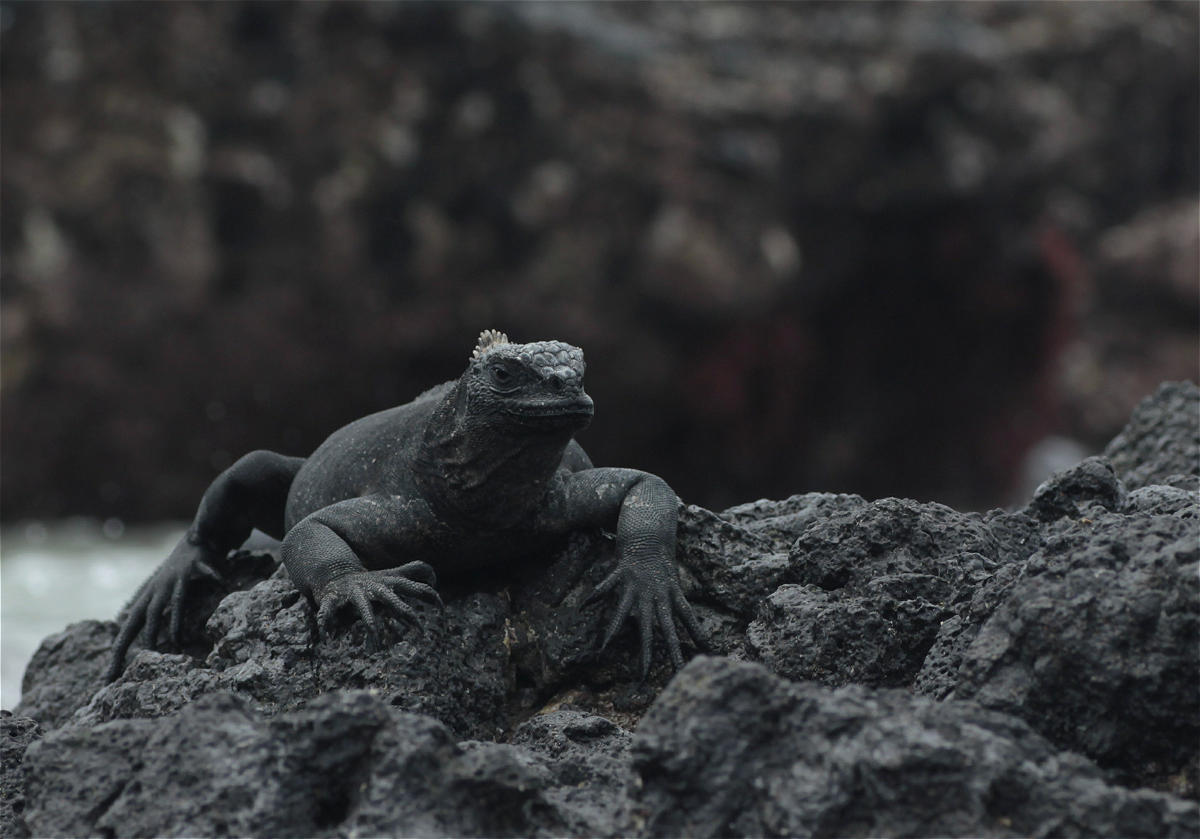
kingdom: Animalia
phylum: Chordata
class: Squamata
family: Iguanidae
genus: Amblyrhynchus
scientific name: Amblyrhynchus cristatus
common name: Marine iguana
